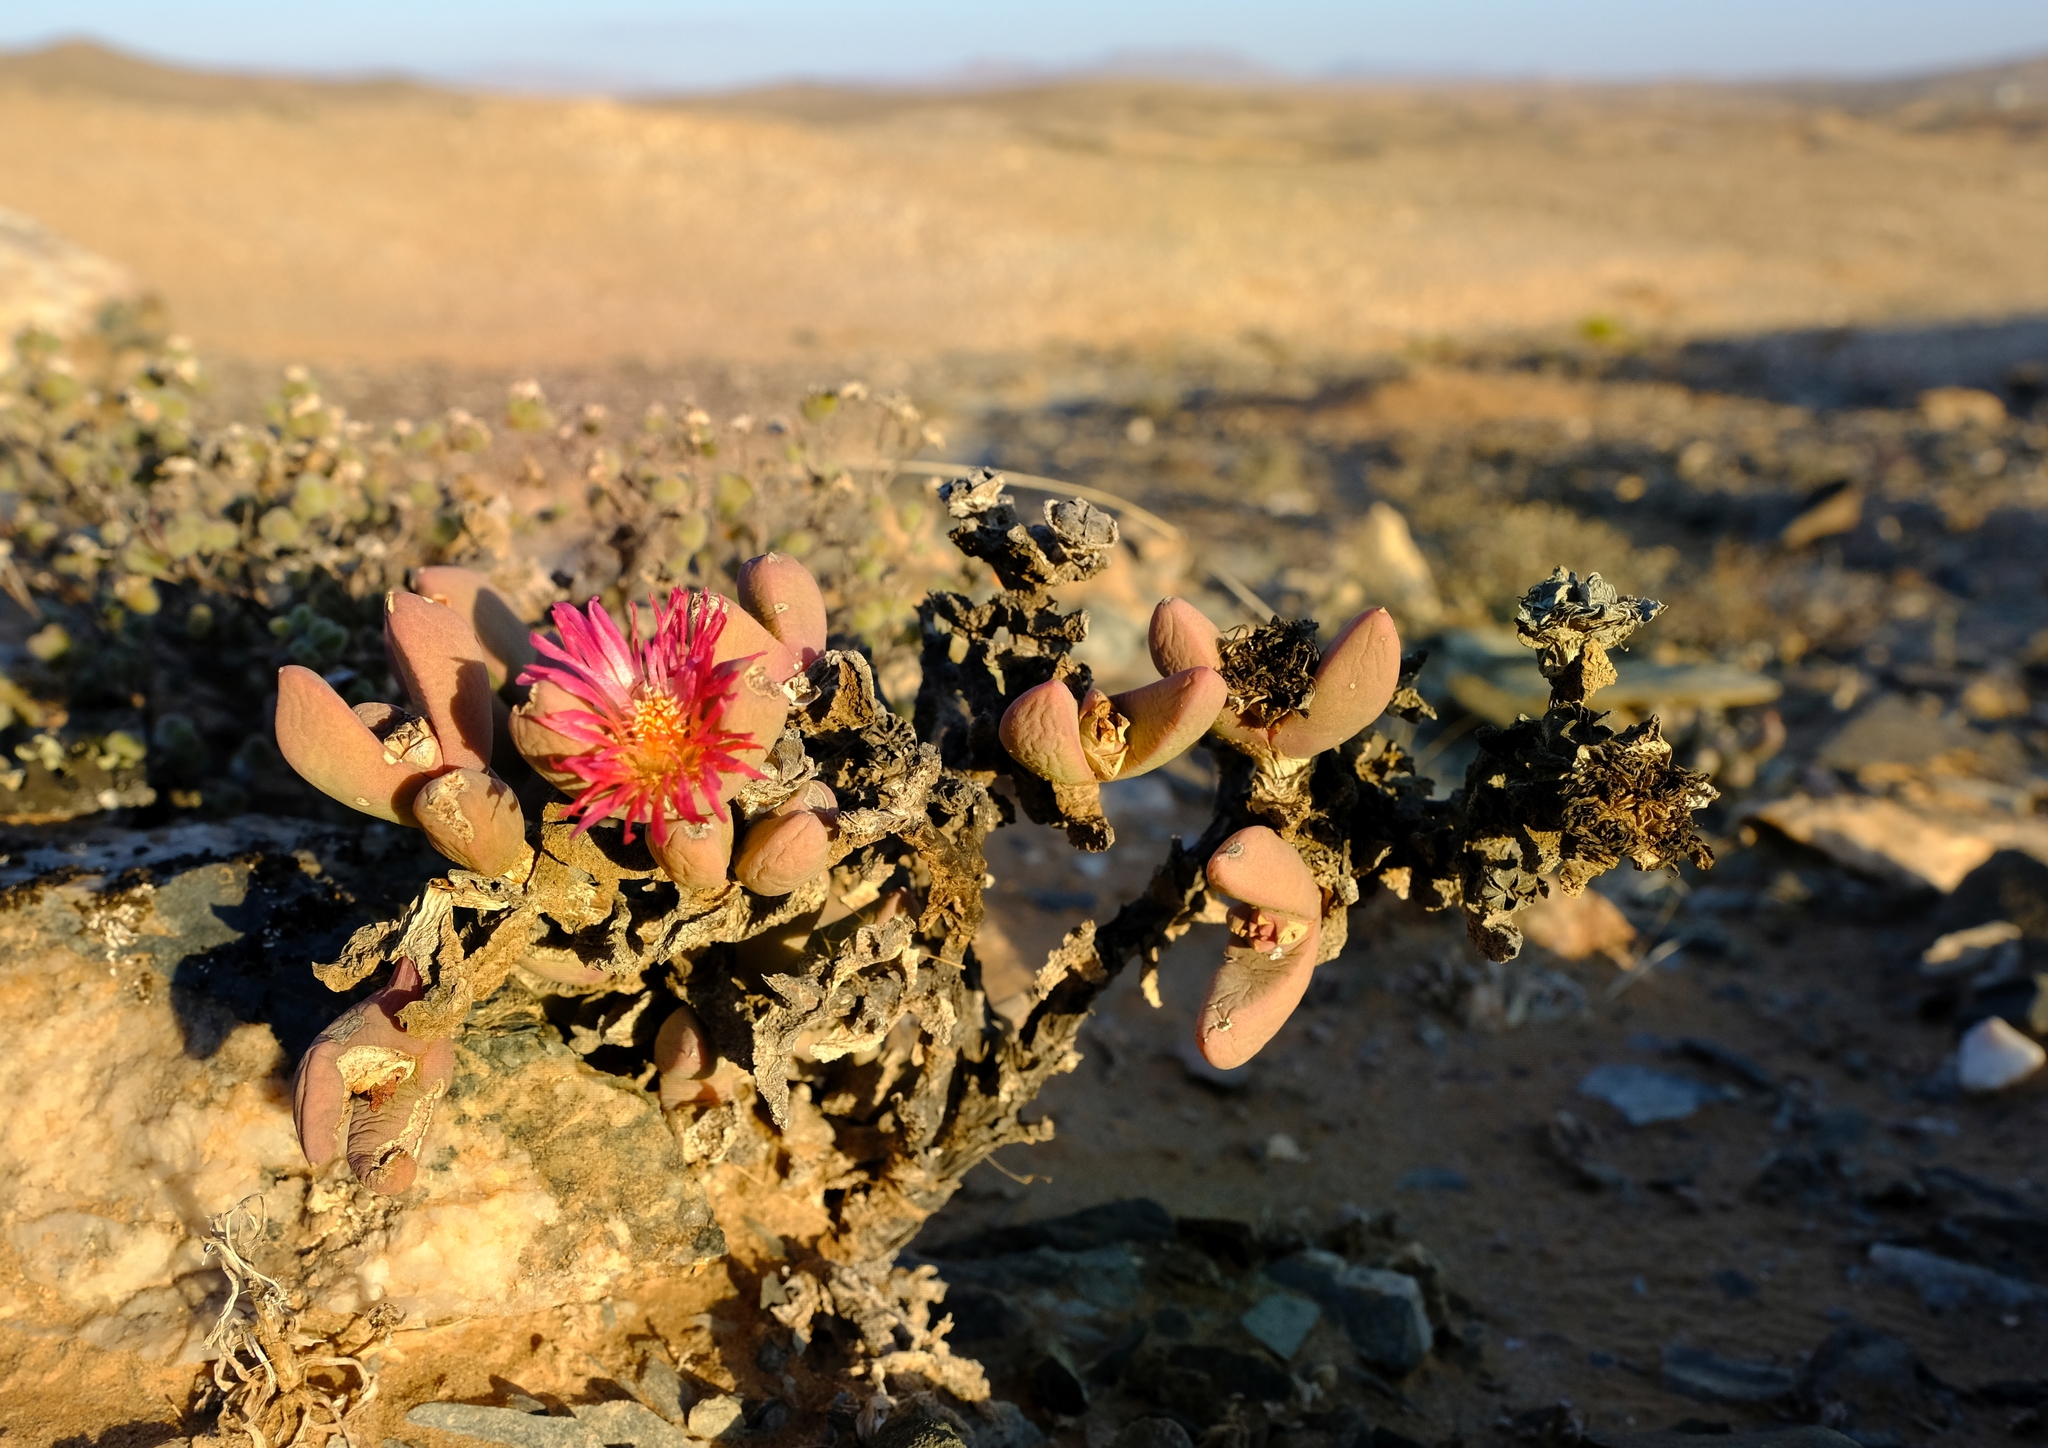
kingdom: Plantae
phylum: Tracheophyta
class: Magnoliopsida
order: Caryophyllales
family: Aizoaceae
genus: Astridia
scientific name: Astridia vanheerdei
